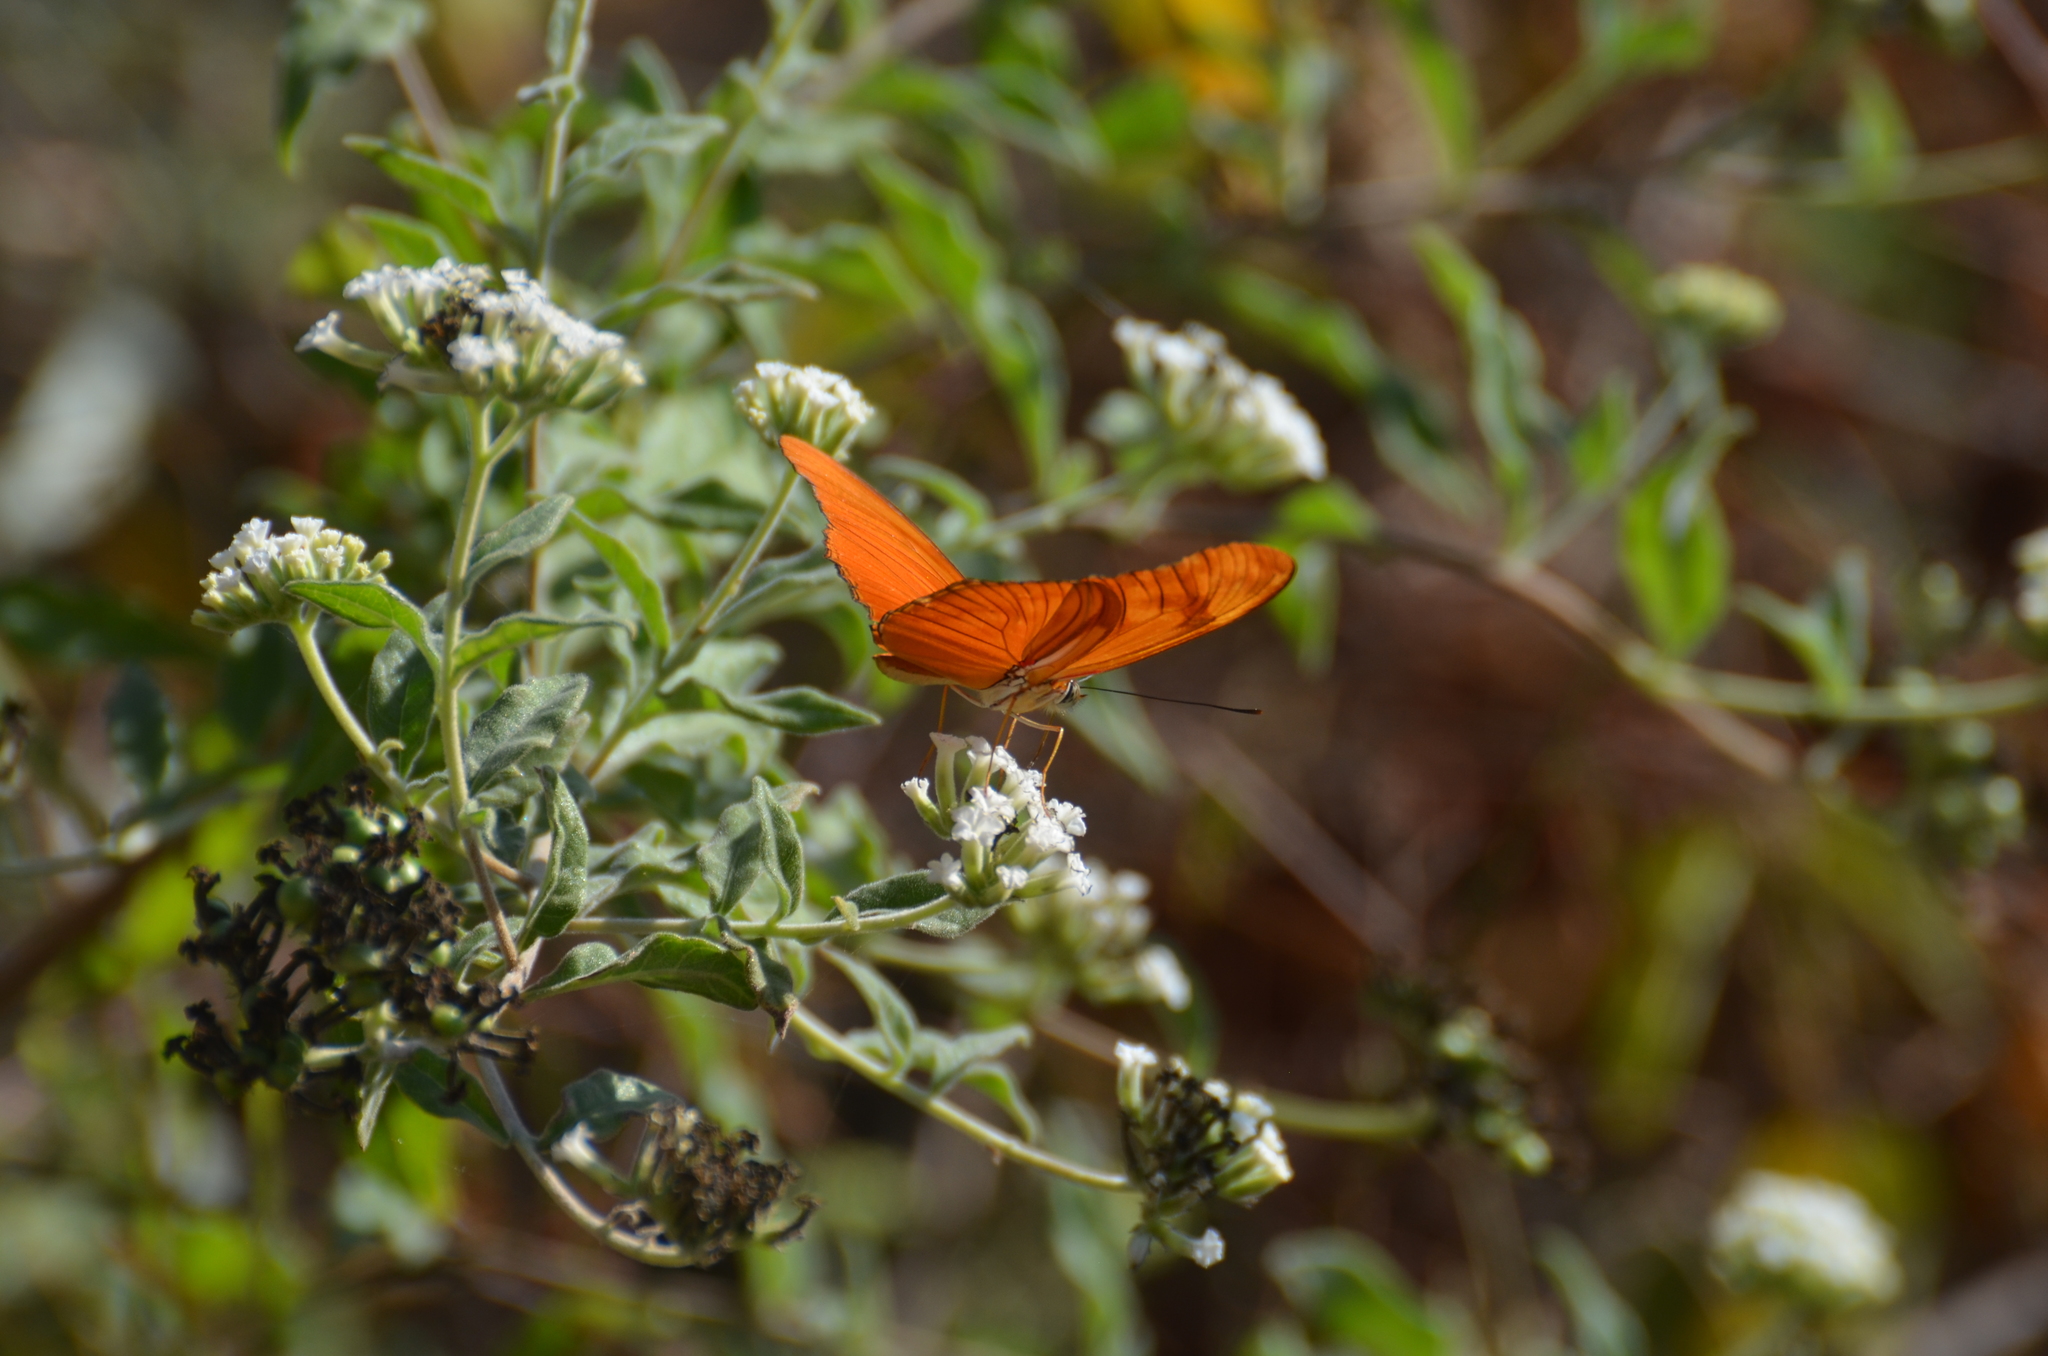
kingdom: Animalia
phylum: Arthropoda
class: Insecta
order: Lepidoptera
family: Nymphalidae
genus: Dryas
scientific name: Dryas iulia
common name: Flambeau
